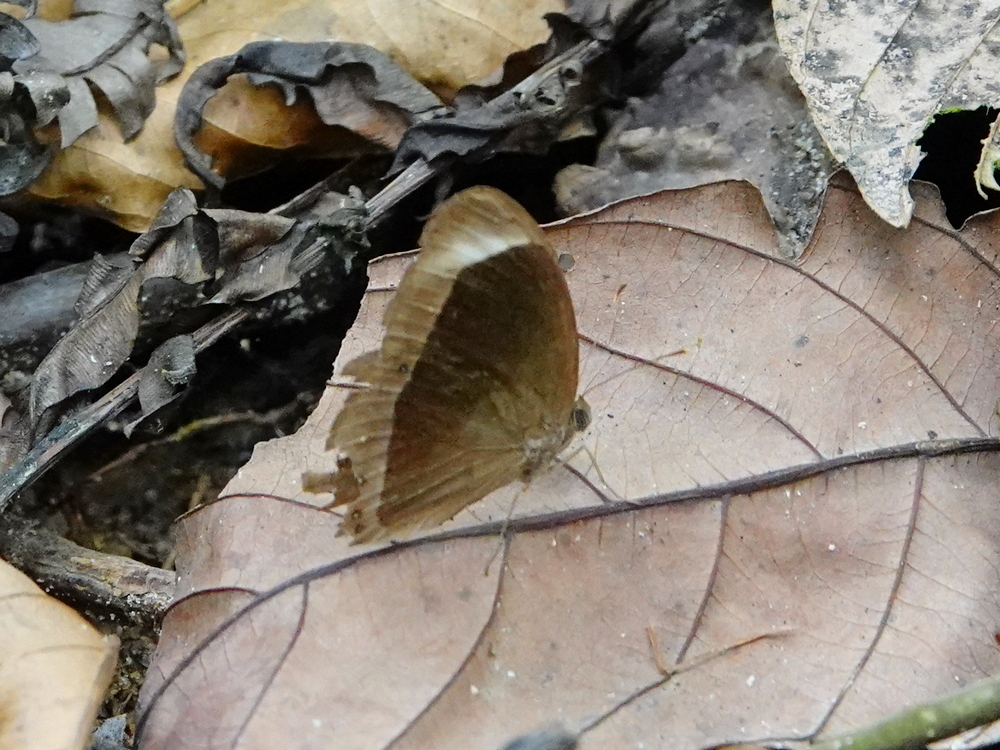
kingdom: Animalia
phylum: Arthropoda
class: Insecta
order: Lepidoptera
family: Nymphalidae
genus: Mycalesis
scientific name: Mycalesis anaxias
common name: White-bar bushbrown
